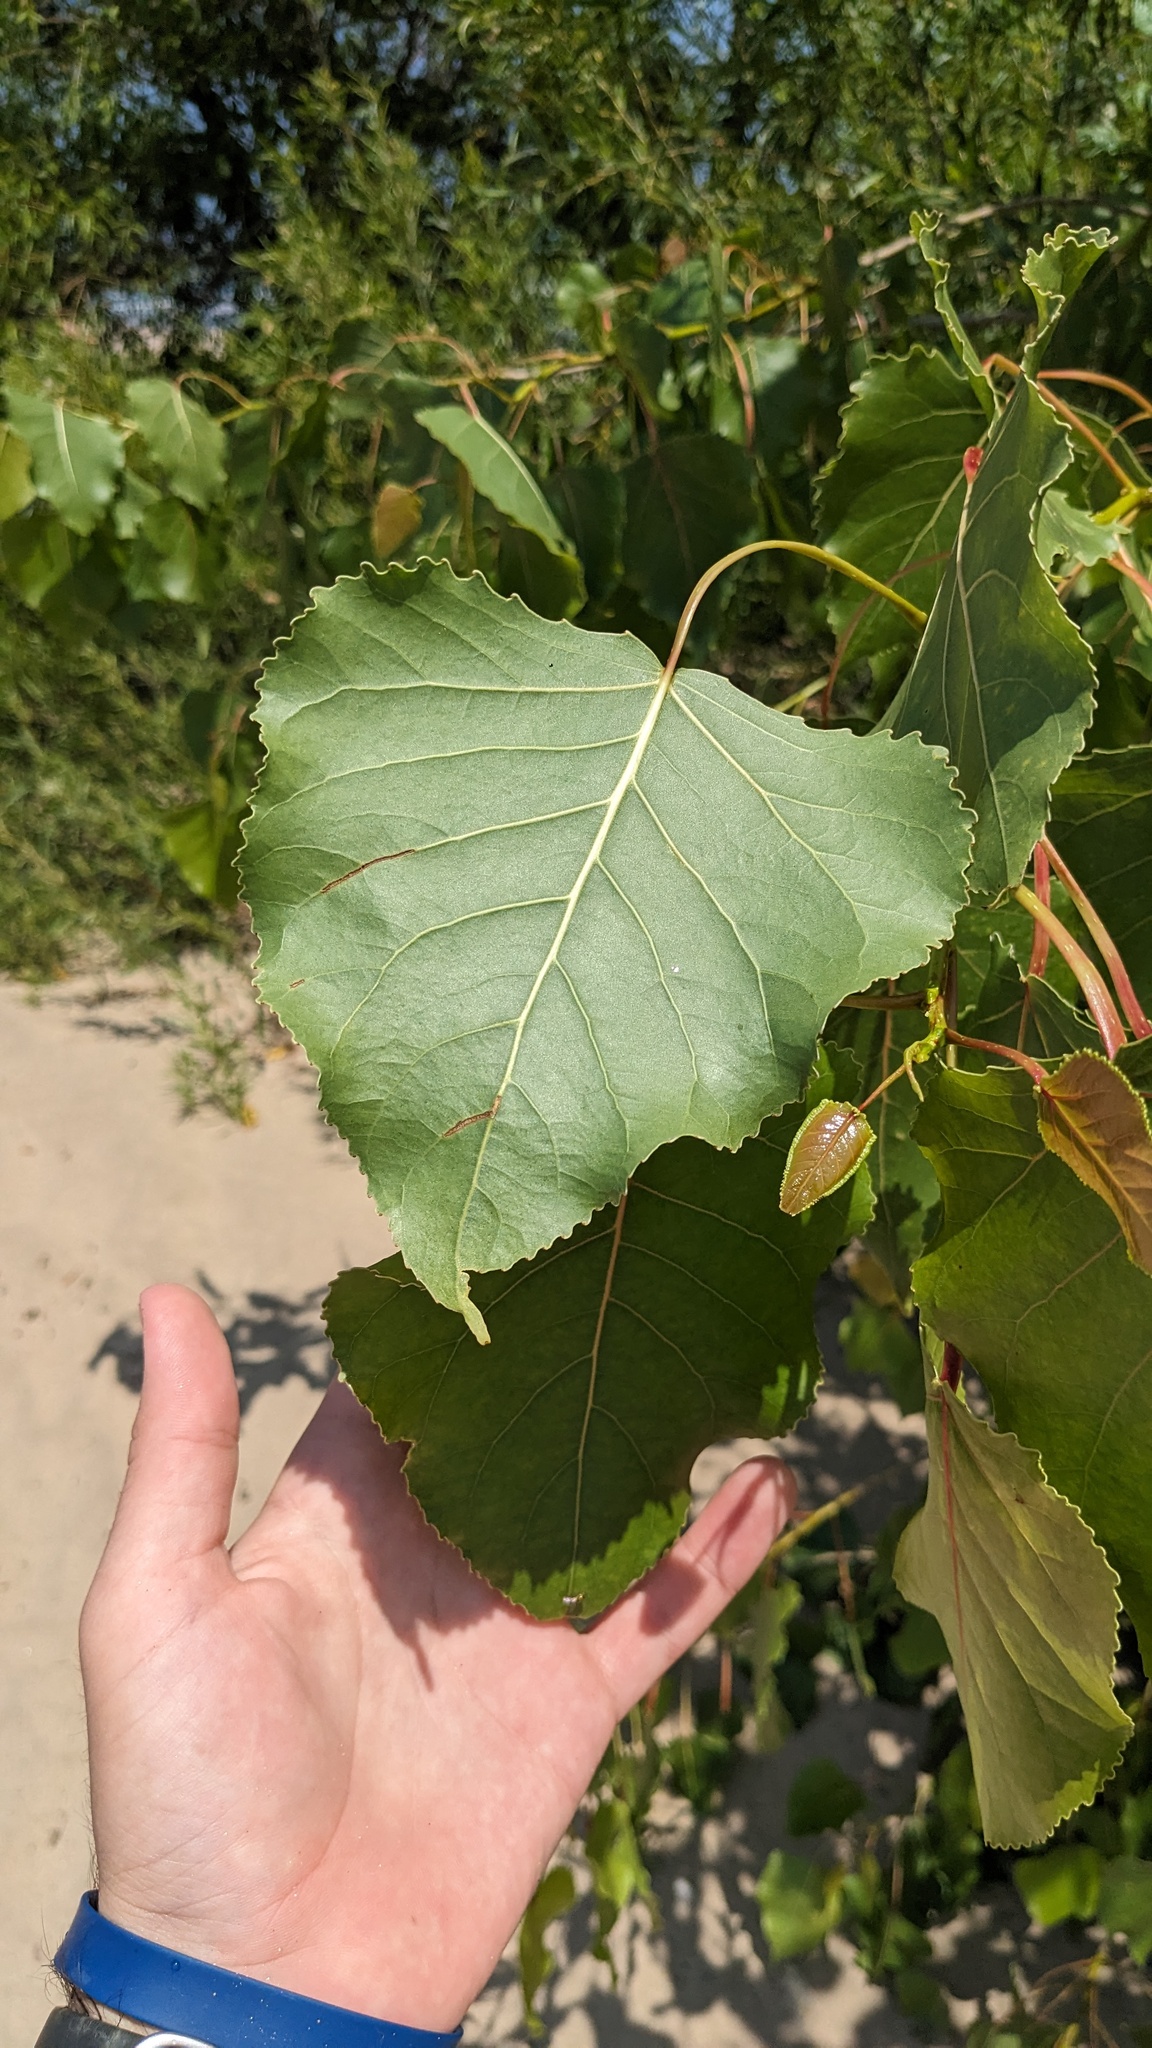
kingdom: Plantae
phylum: Tracheophyta
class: Magnoliopsida
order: Malpighiales
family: Salicaceae
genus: Populus
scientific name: Populus deltoides
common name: Eastern cottonwood
